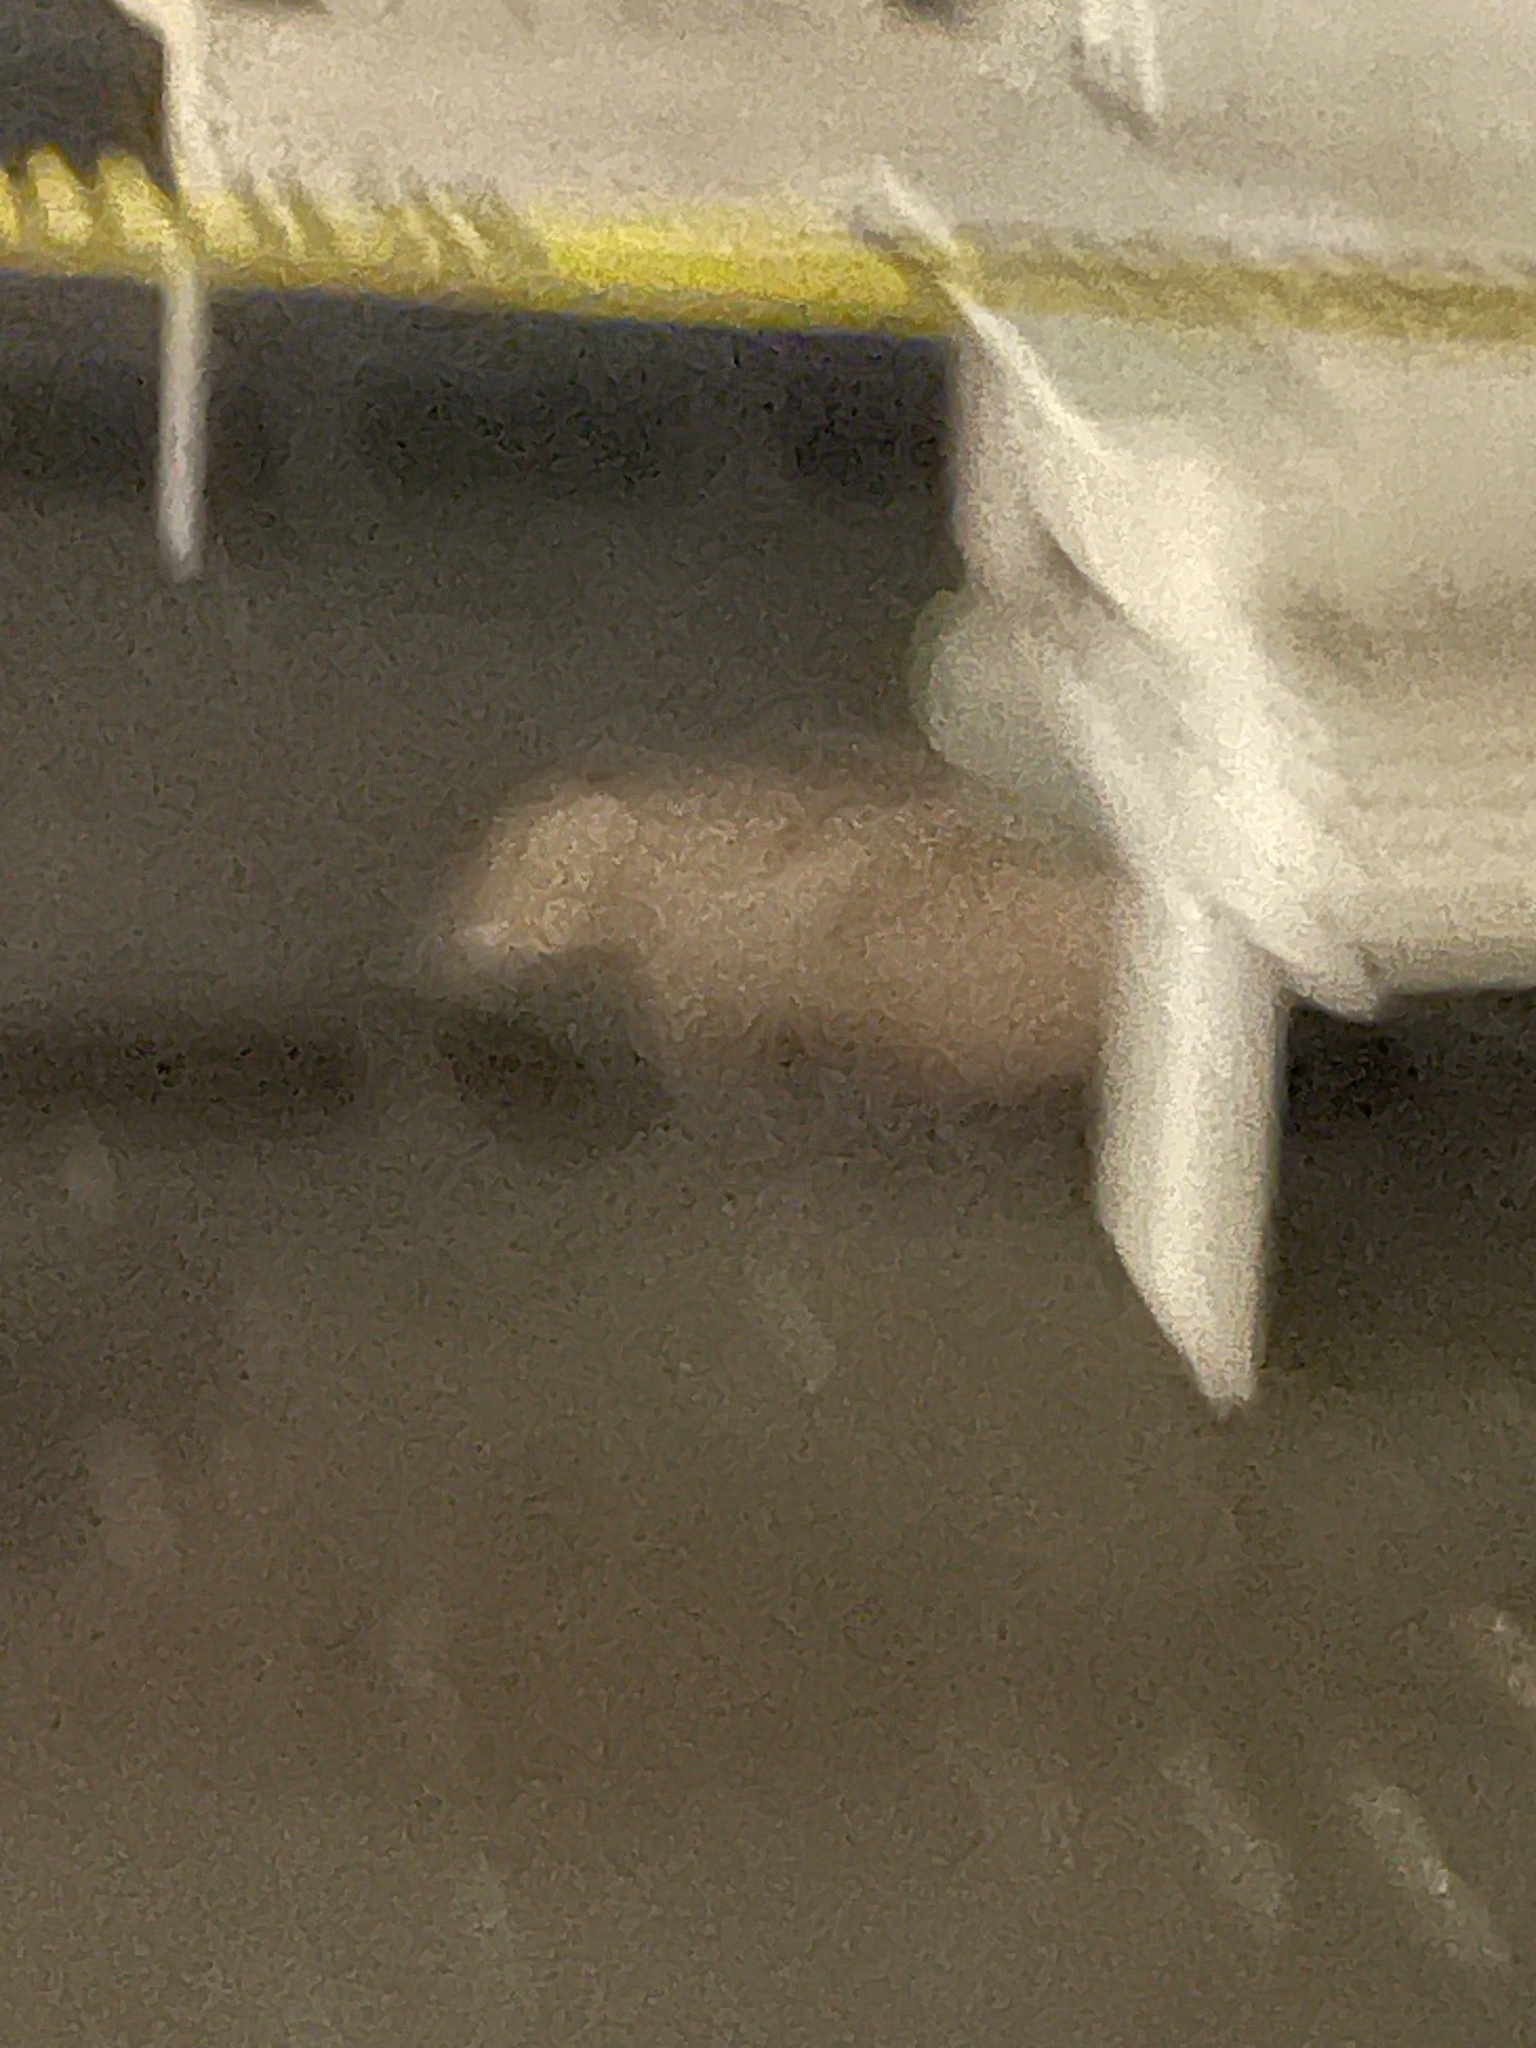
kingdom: Animalia
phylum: Chordata
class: Mammalia
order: Didelphimorphia
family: Didelphidae
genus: Didelphis
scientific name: Didelphis virginiana
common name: Virginia opossum
